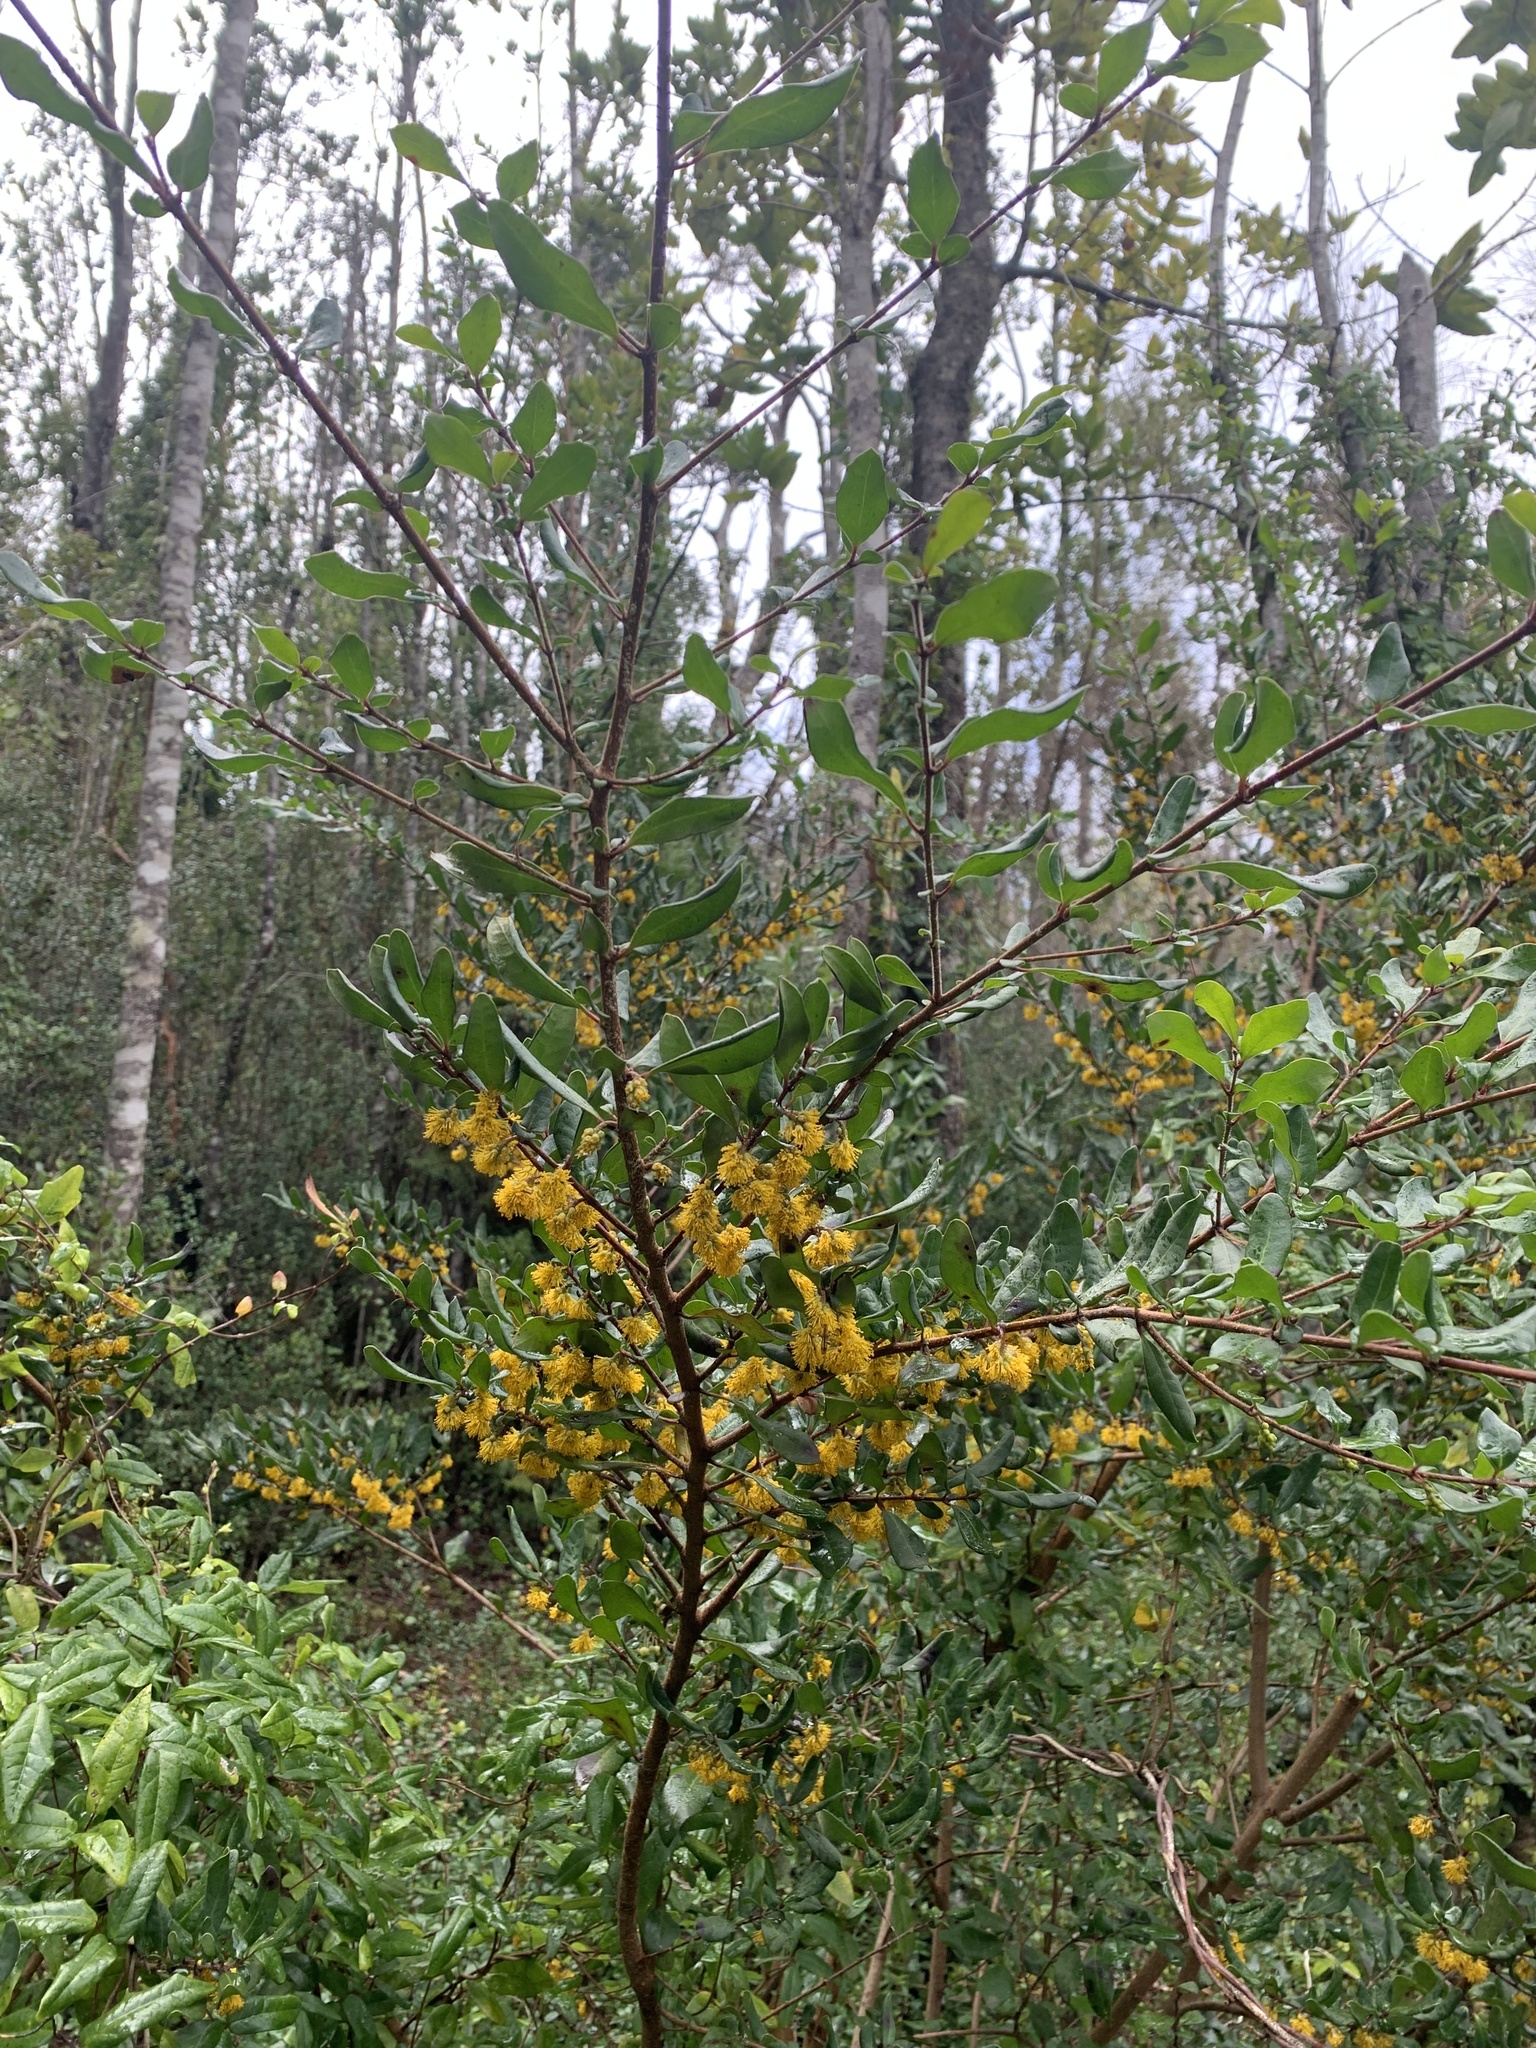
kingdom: Plantae
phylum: Tracheophyta
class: Magnoliopsida
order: Malpighiales
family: Salicaceae
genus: Azara
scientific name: Azara integrifolia
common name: Goldspire
